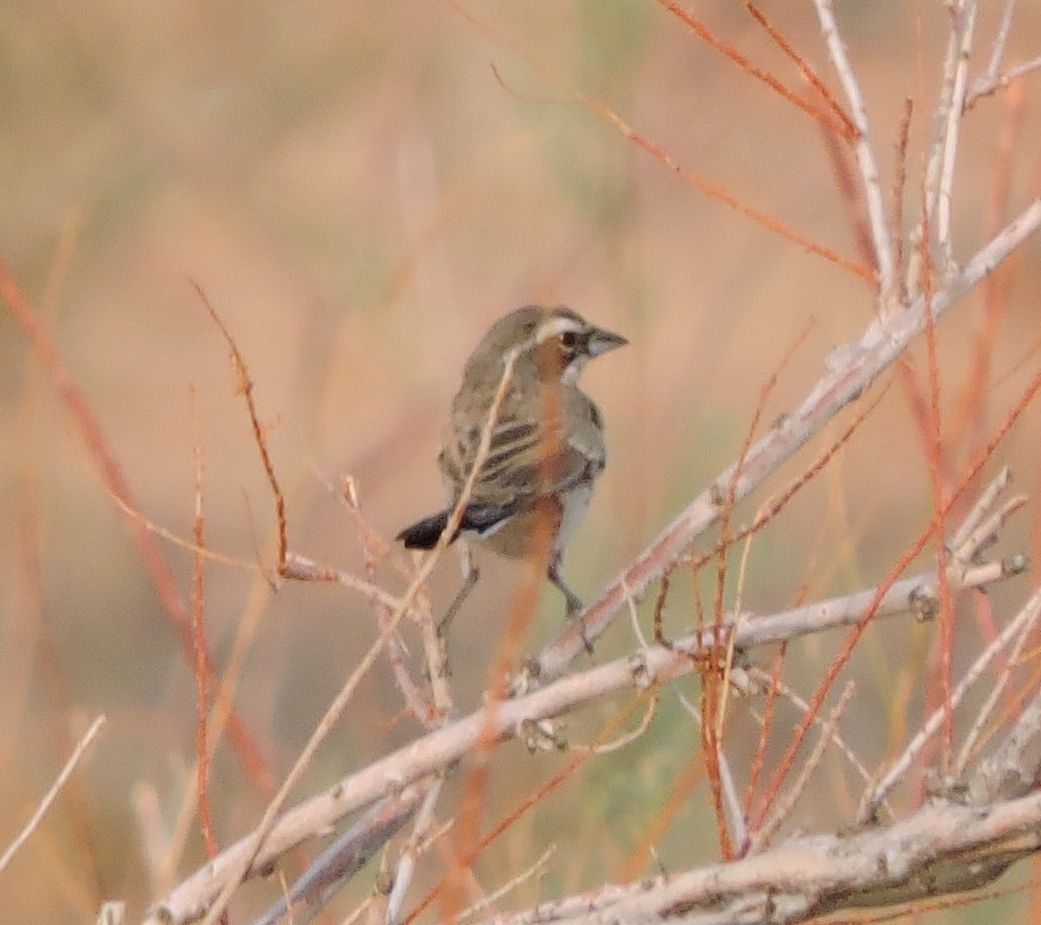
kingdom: Animalia
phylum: Chordata
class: Aves
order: Passeriformes
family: Passerellidae
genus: Amphispiza
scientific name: Amphispiza bilineata
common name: Black-throated sparrow
